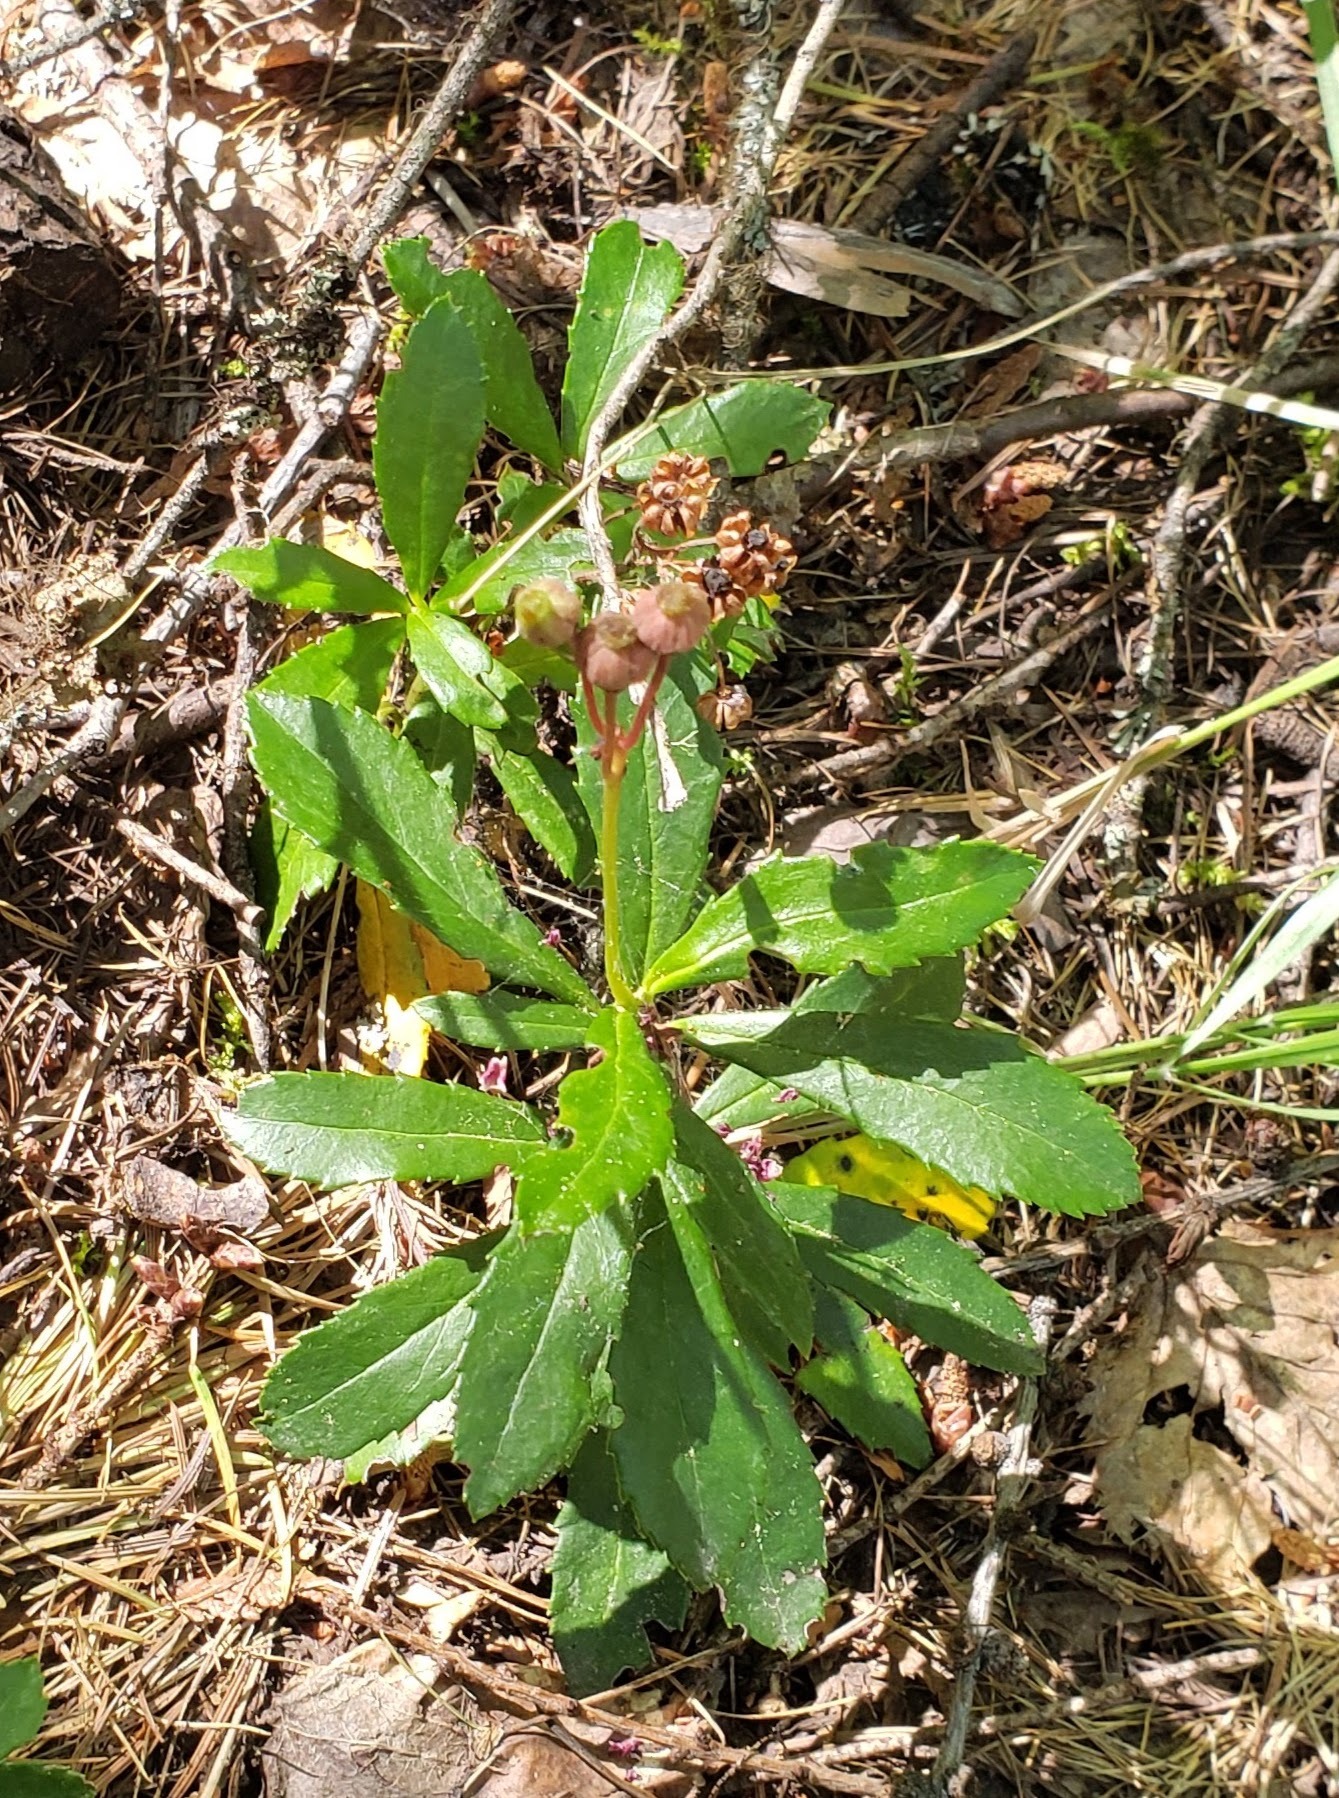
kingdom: Plantae
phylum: Tracheophyta
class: Magnoliopsida
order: Ericales
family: Ericaceae
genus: Chimaphila
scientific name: Chimaphila umbellata
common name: Pipsissewa
